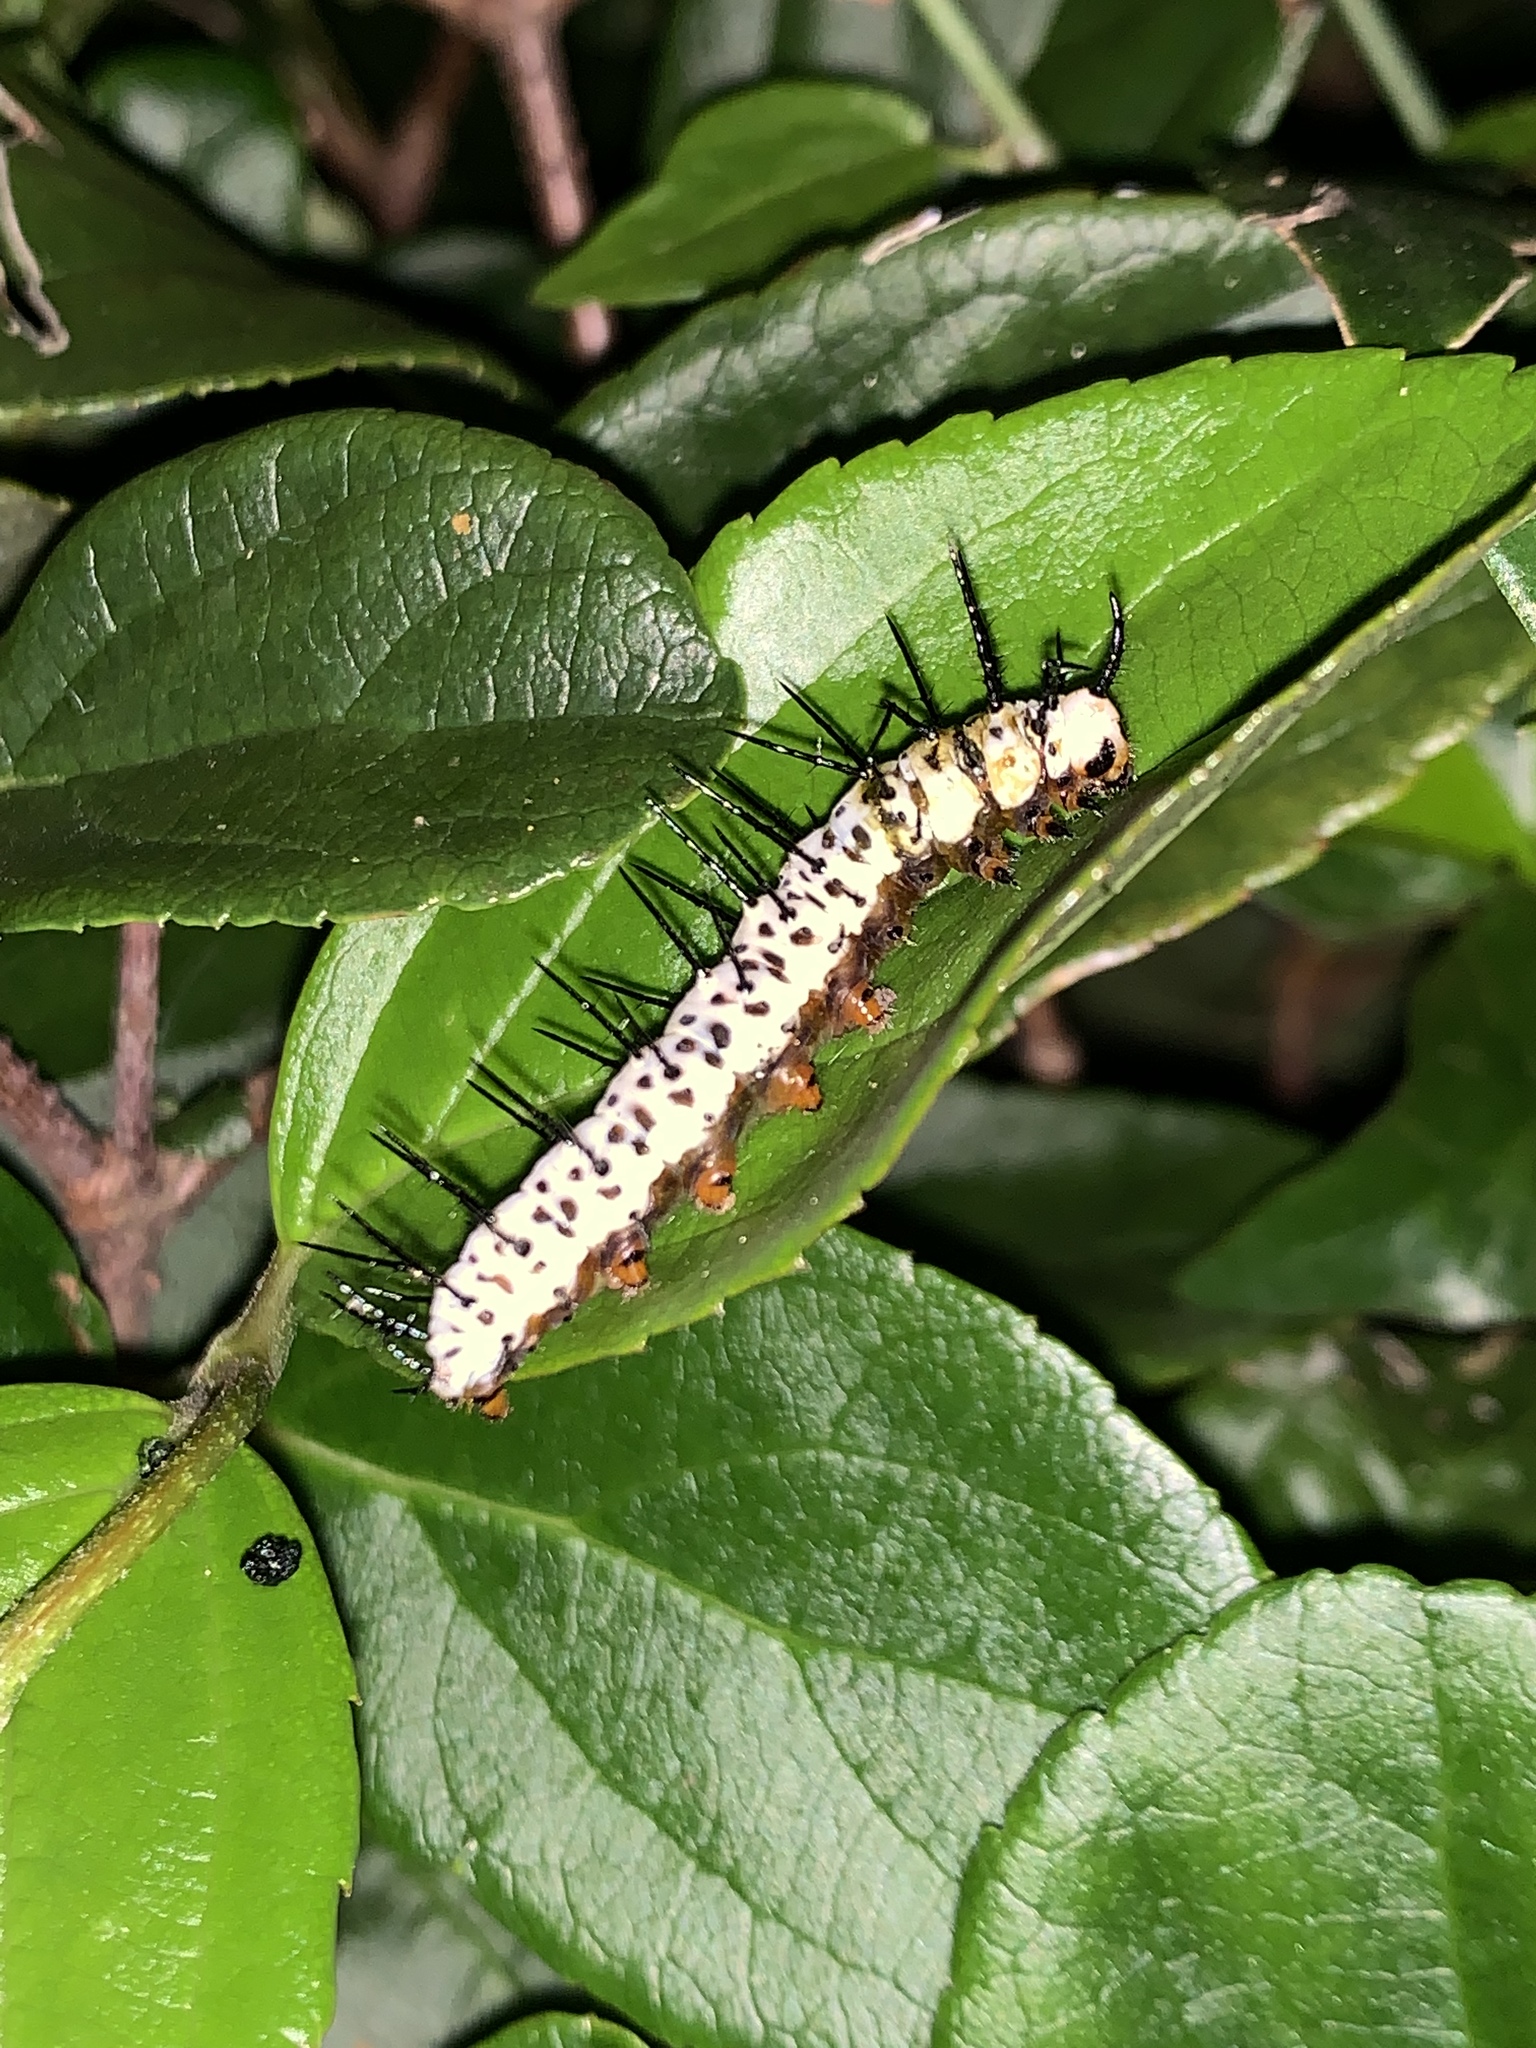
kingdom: Animalia
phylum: Arthropoda
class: Insecta
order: Lepidoptera
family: Nymphalidae
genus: Heliconius
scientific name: Heliconius charithonia
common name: Zebra long wing
